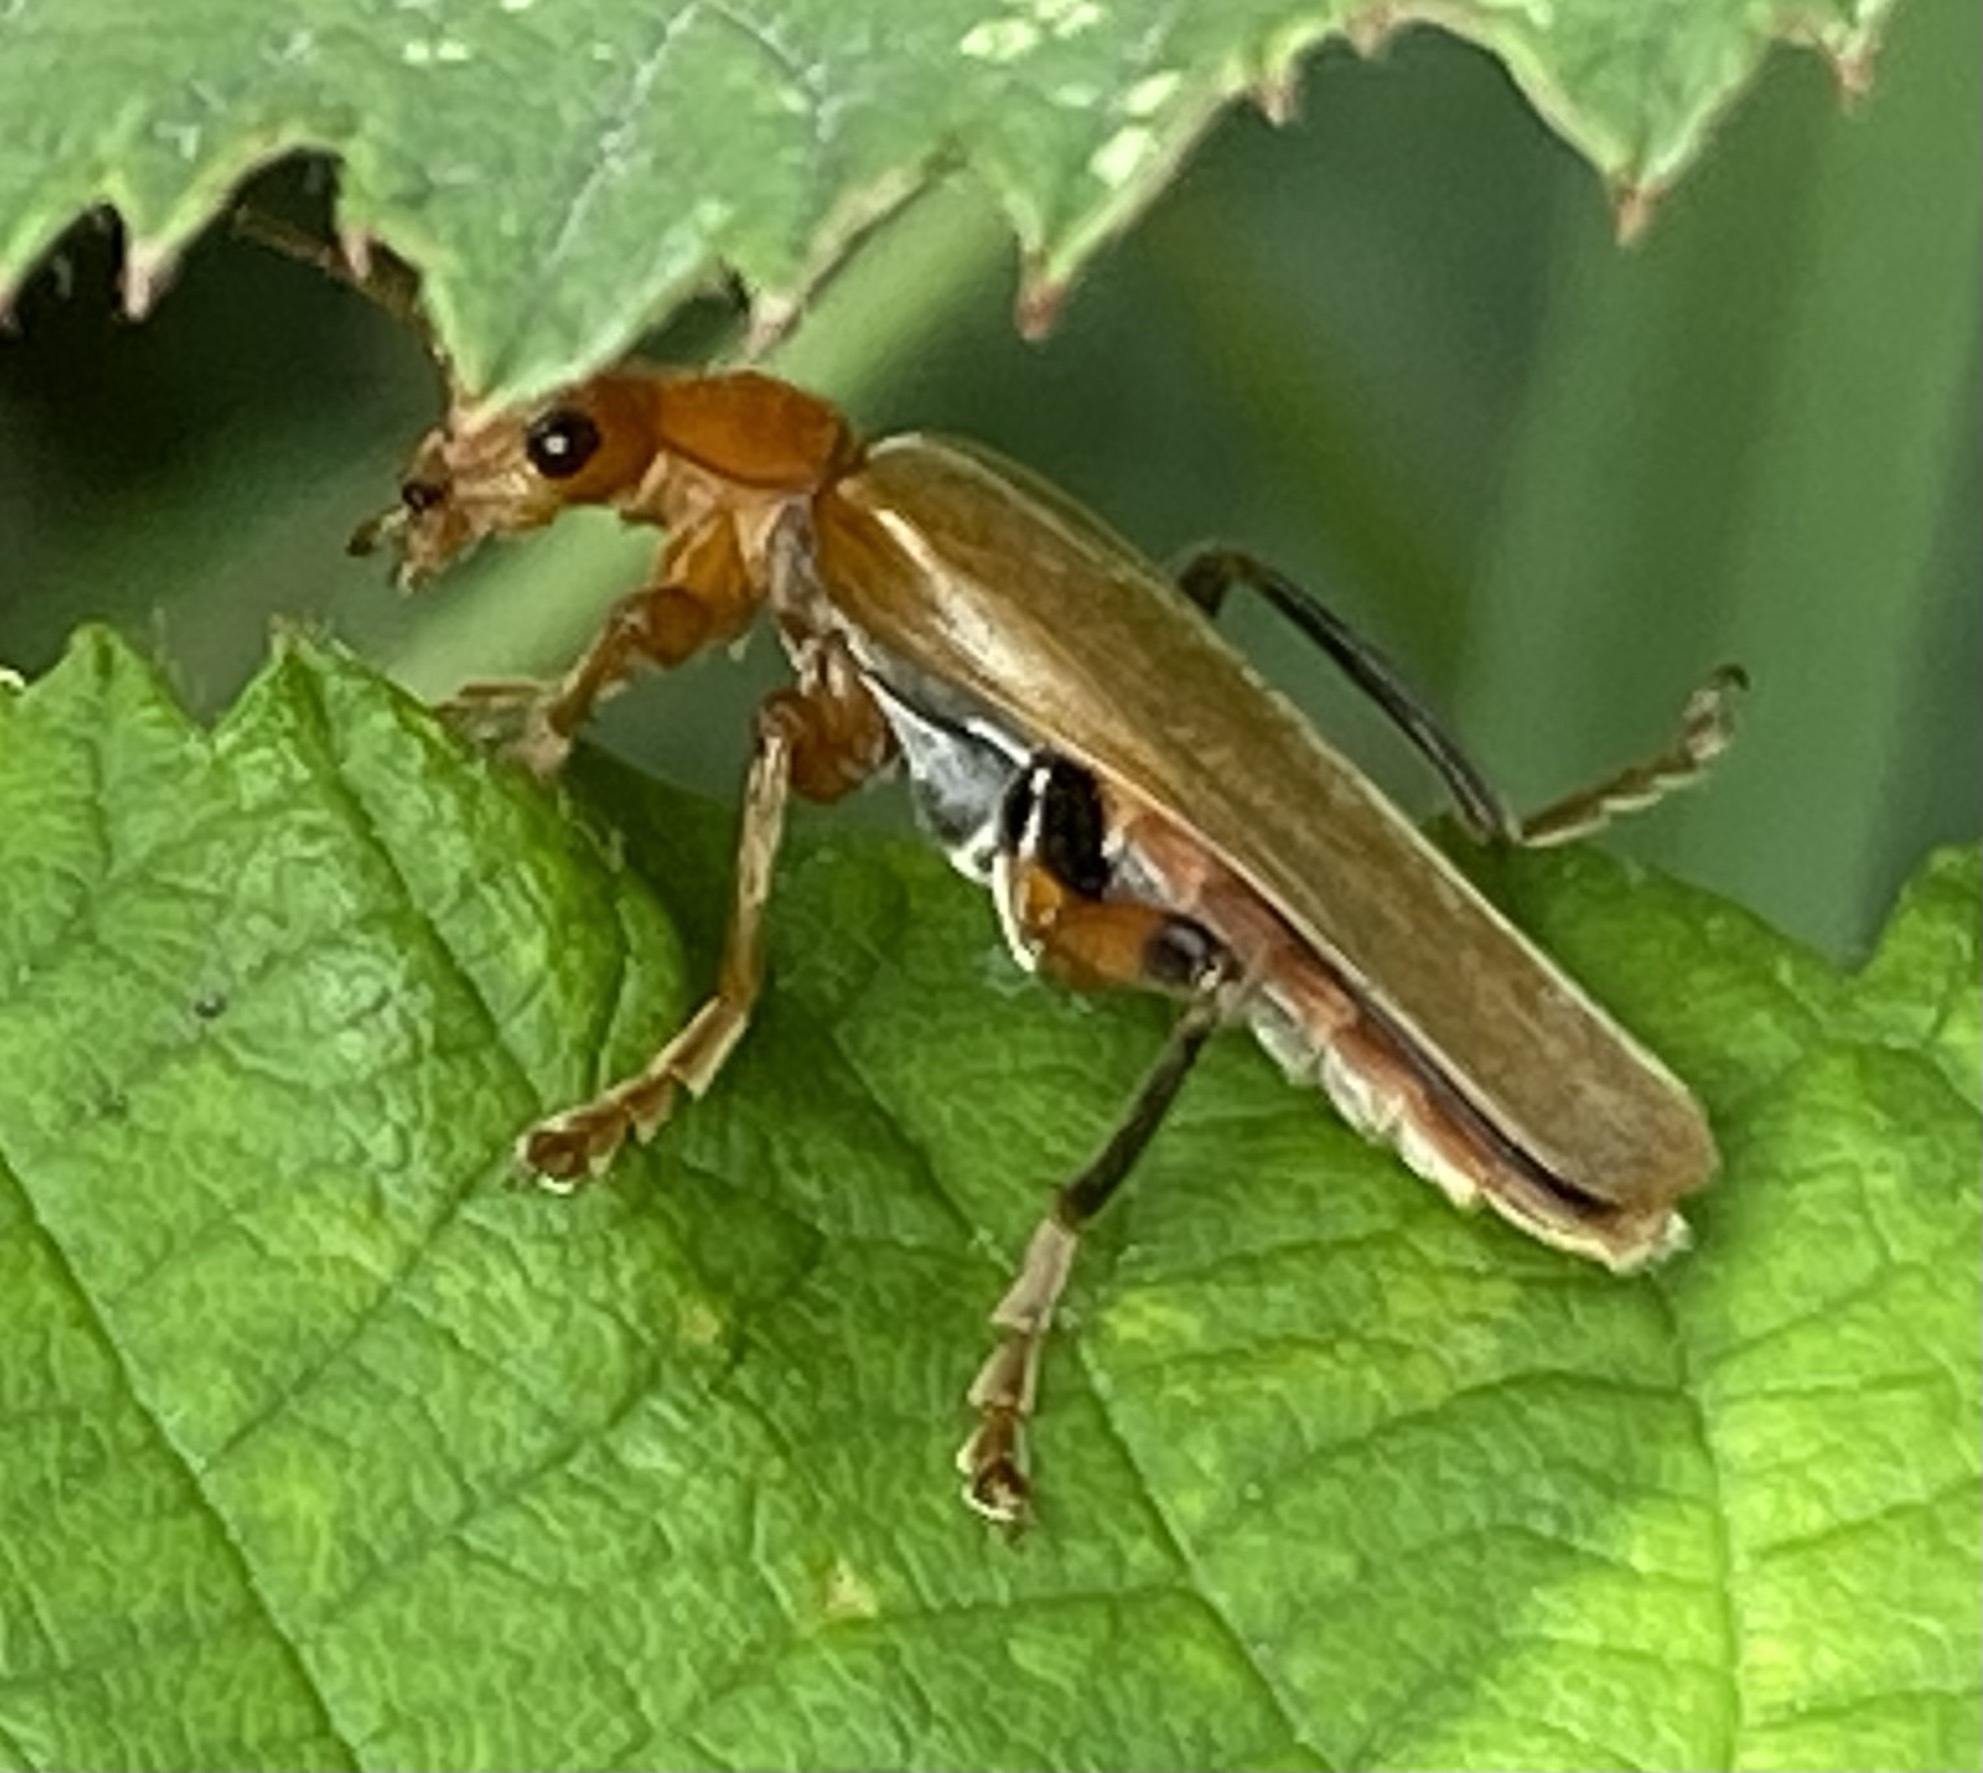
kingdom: Animalia
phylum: Arthropoda
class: Insecta
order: Coleoptera
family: Cantharidae
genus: Cantharis
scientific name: Cantharis livida
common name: Livid soldier beetle
